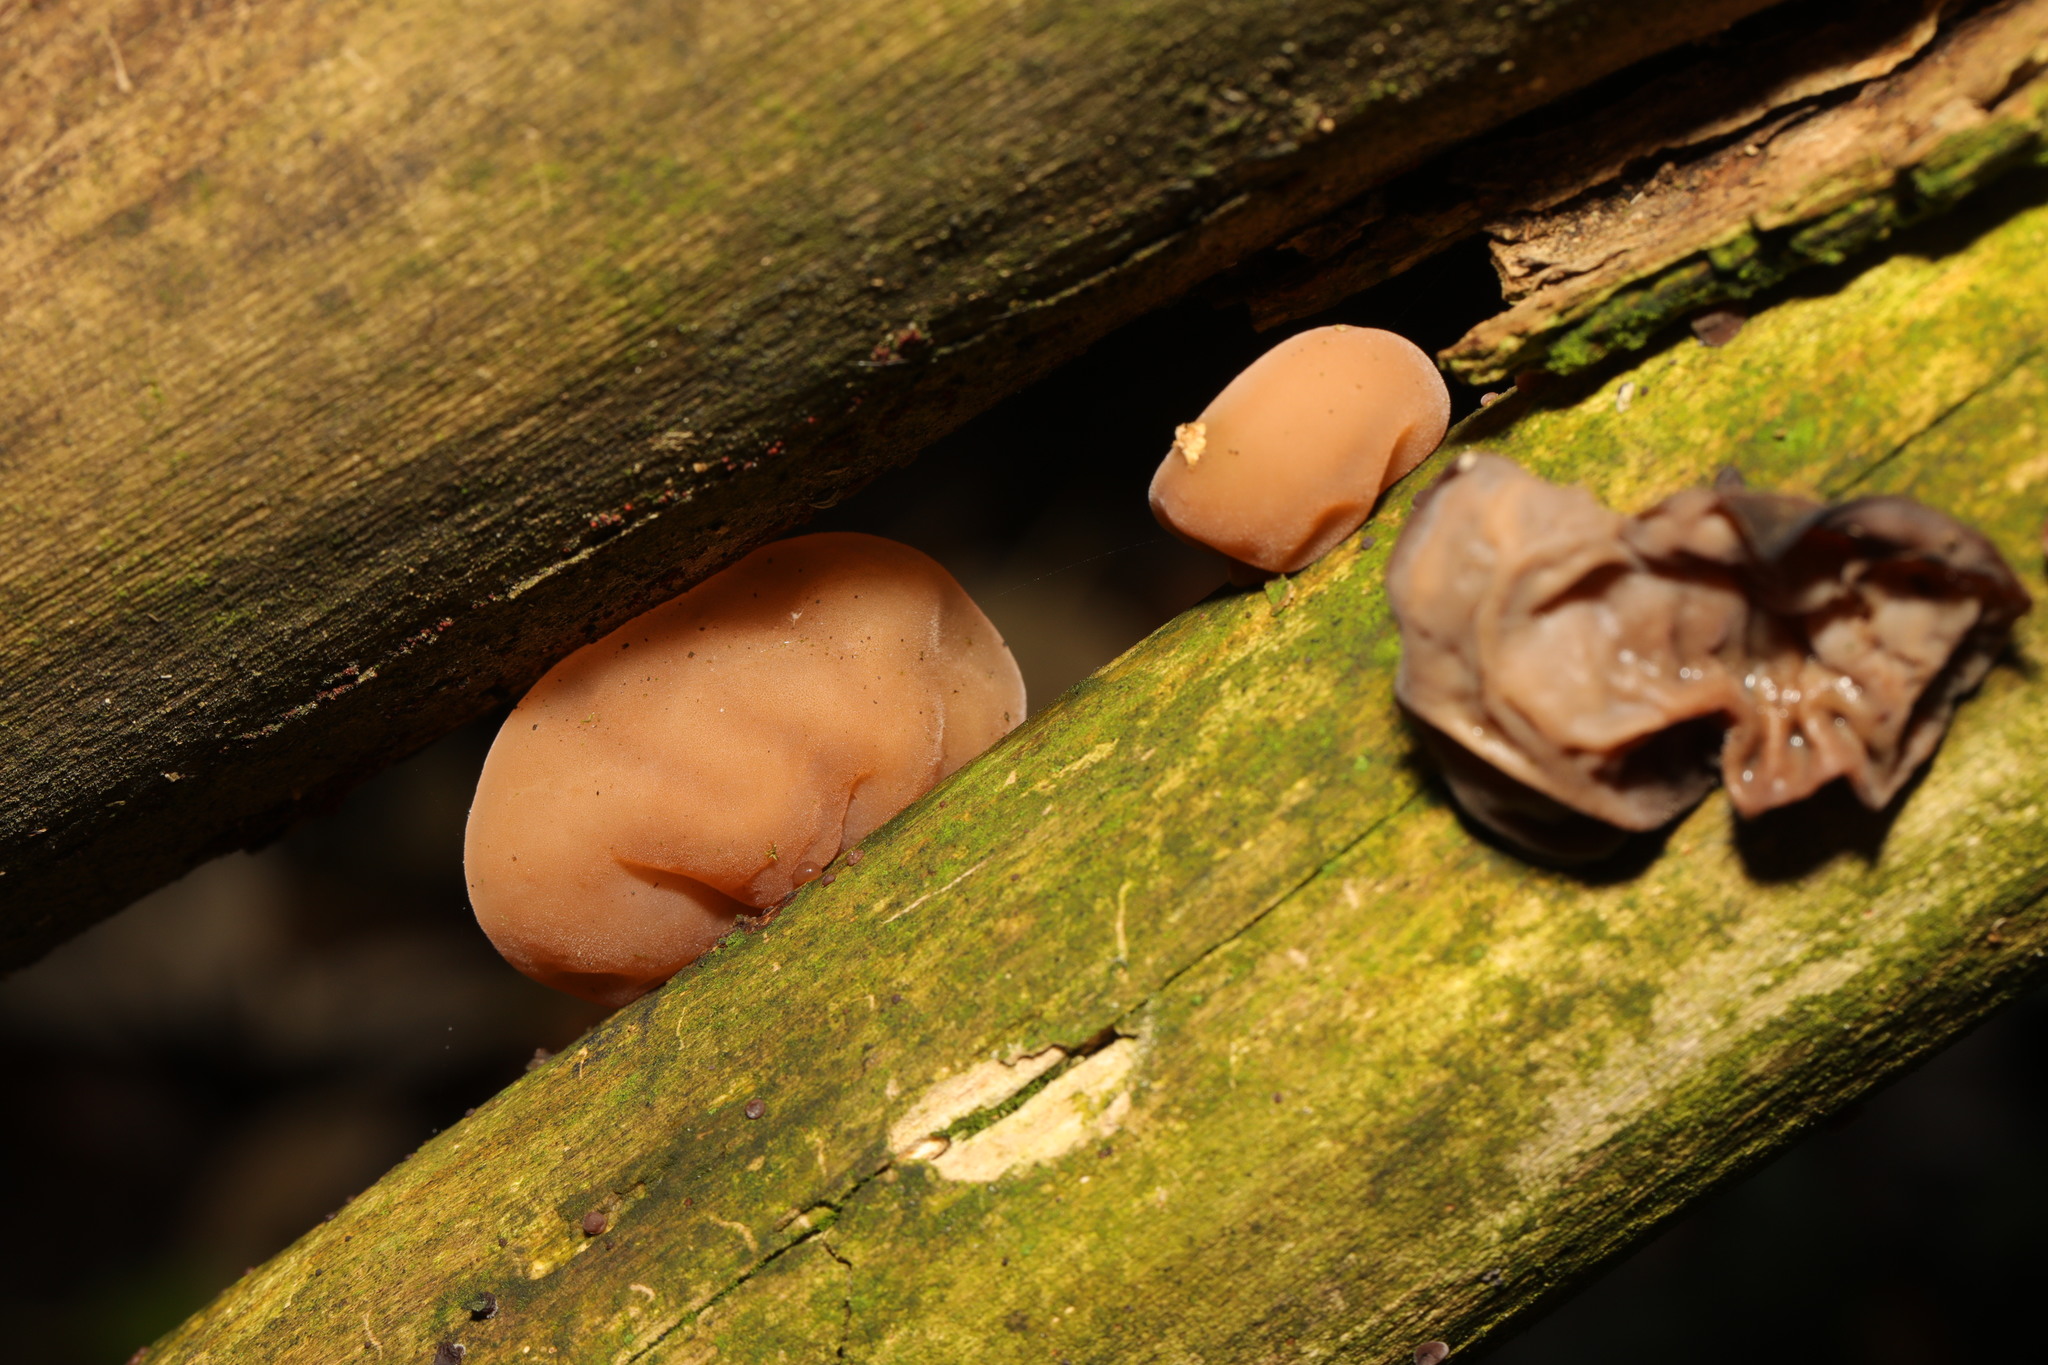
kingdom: Fungi
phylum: Basidiomycota
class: Agaricomycetes
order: Auriculariales
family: Auriculariaceae
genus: Auricularia
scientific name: Auricularia auricula-judae
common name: Jelly ear
